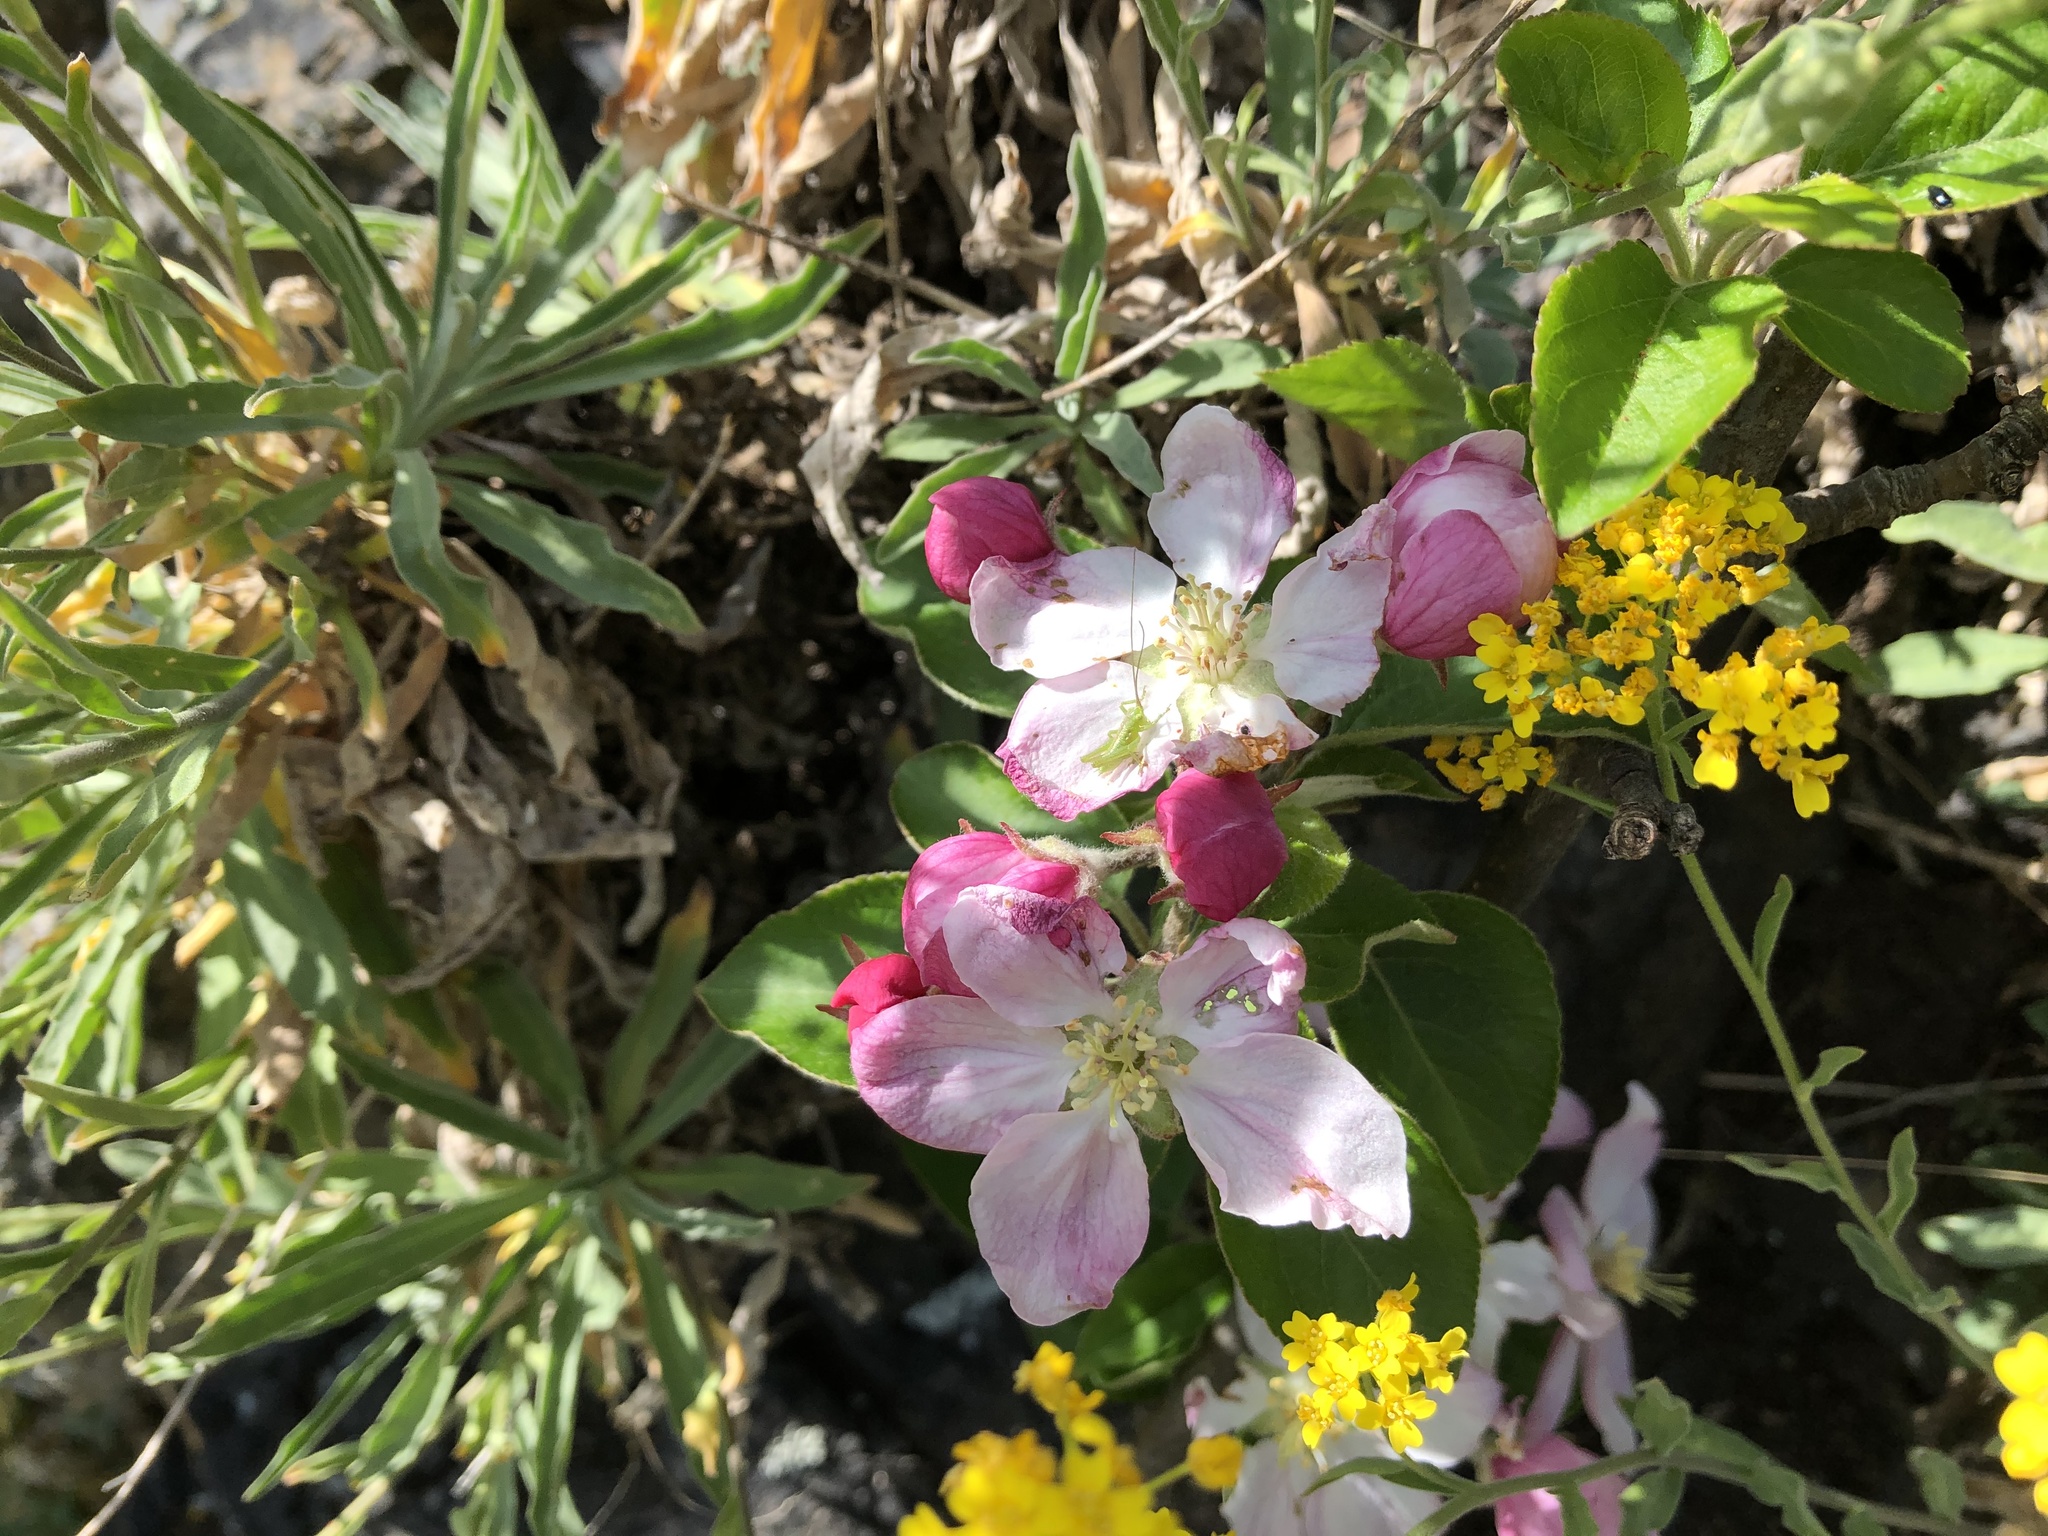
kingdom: Plantae
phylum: Tracheophyta
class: Magnoliopsida
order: Rosales
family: Rosaceae
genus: Malus
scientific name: Malus domestica
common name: Apple
